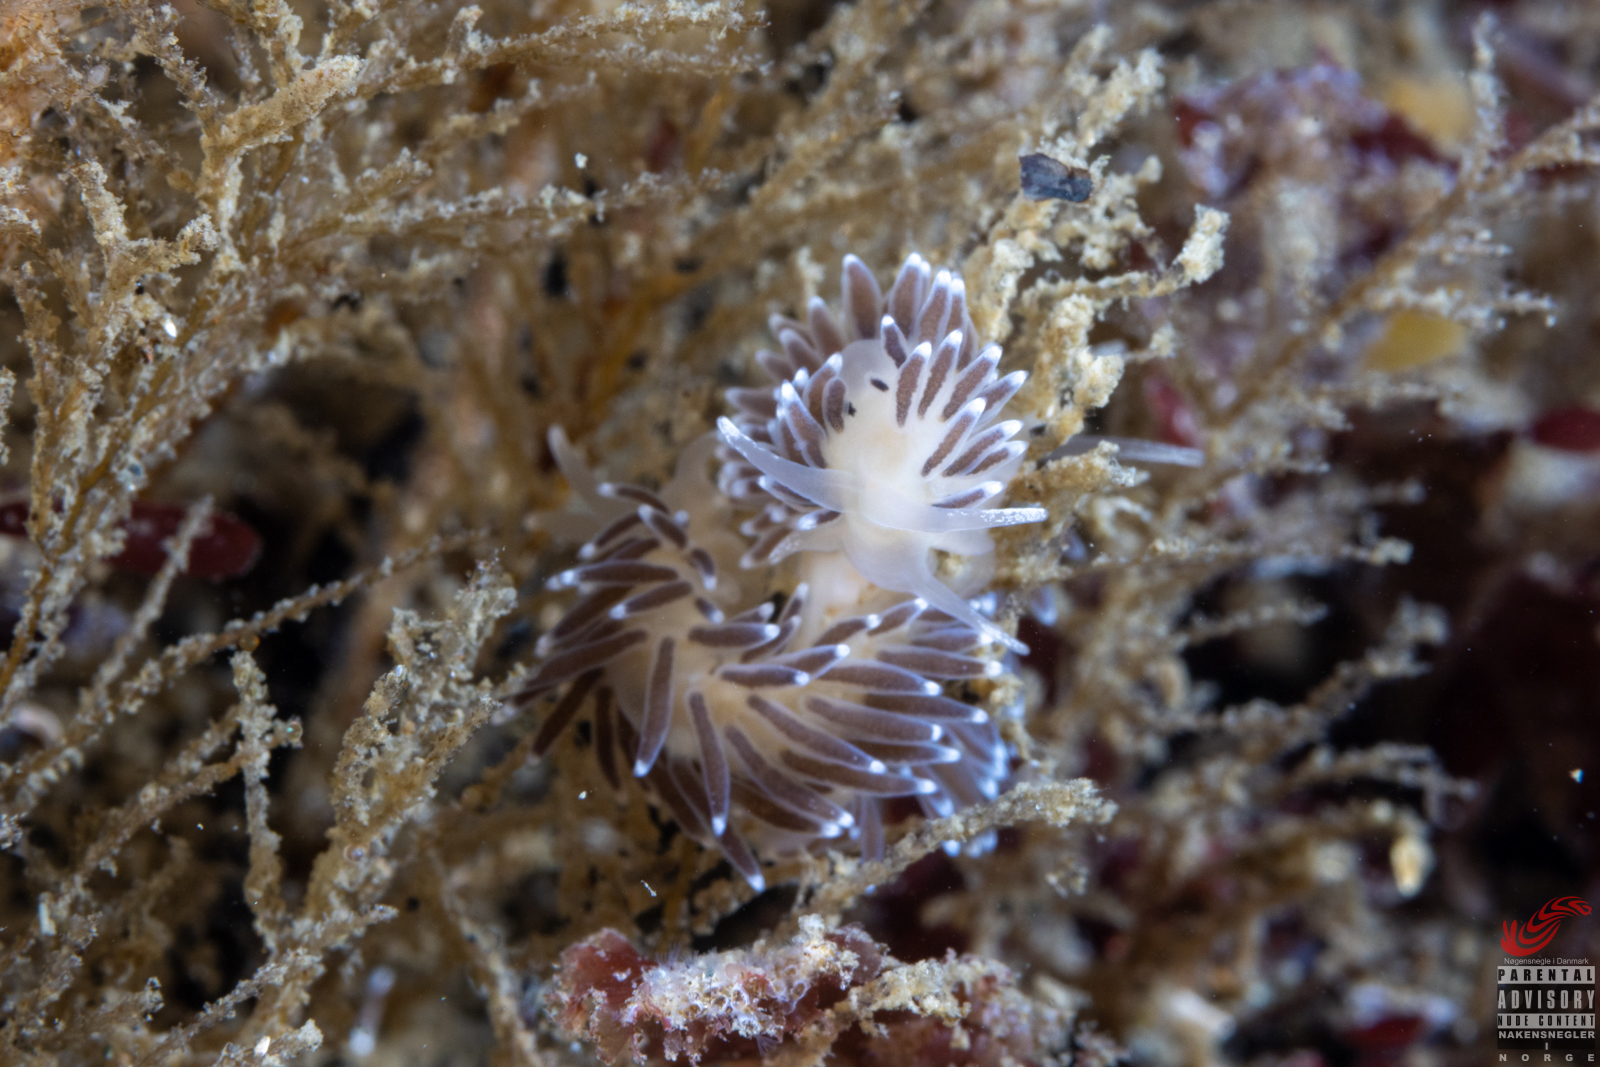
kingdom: Animalia
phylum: Mollusca
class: Gastropoda
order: Nudibranchia
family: Cuthonellidae
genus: Cuthonella
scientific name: Cuthonella concinna
